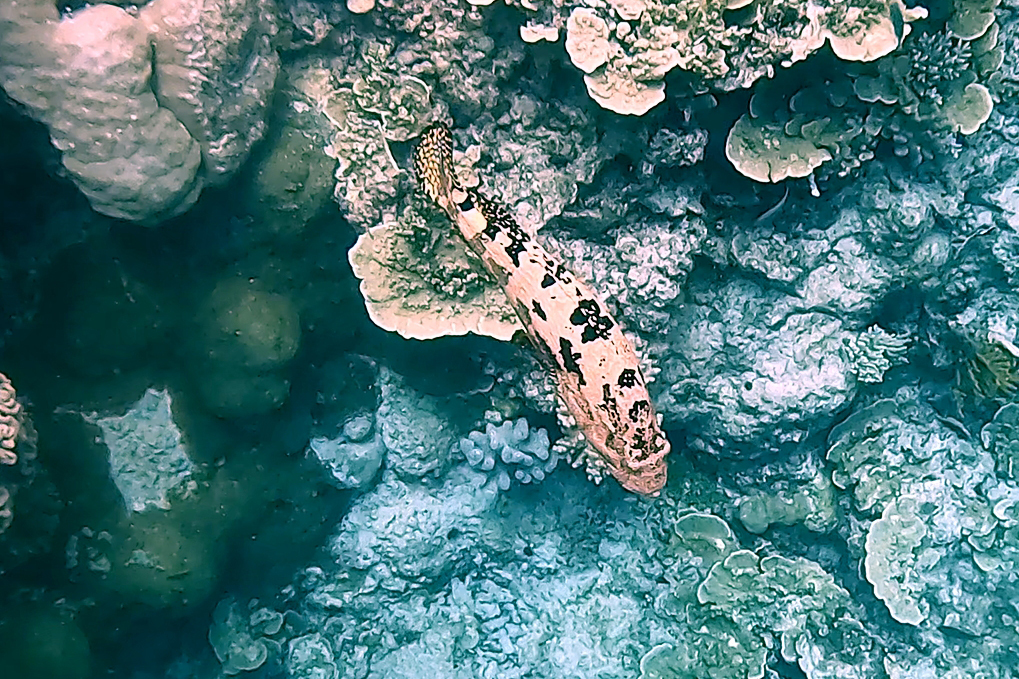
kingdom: Animalia
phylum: Chordata
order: Perciformes
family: Serranidae
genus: Epinephelus
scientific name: Epinephelus fuscoguttatus
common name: Brown-marbled grouper
